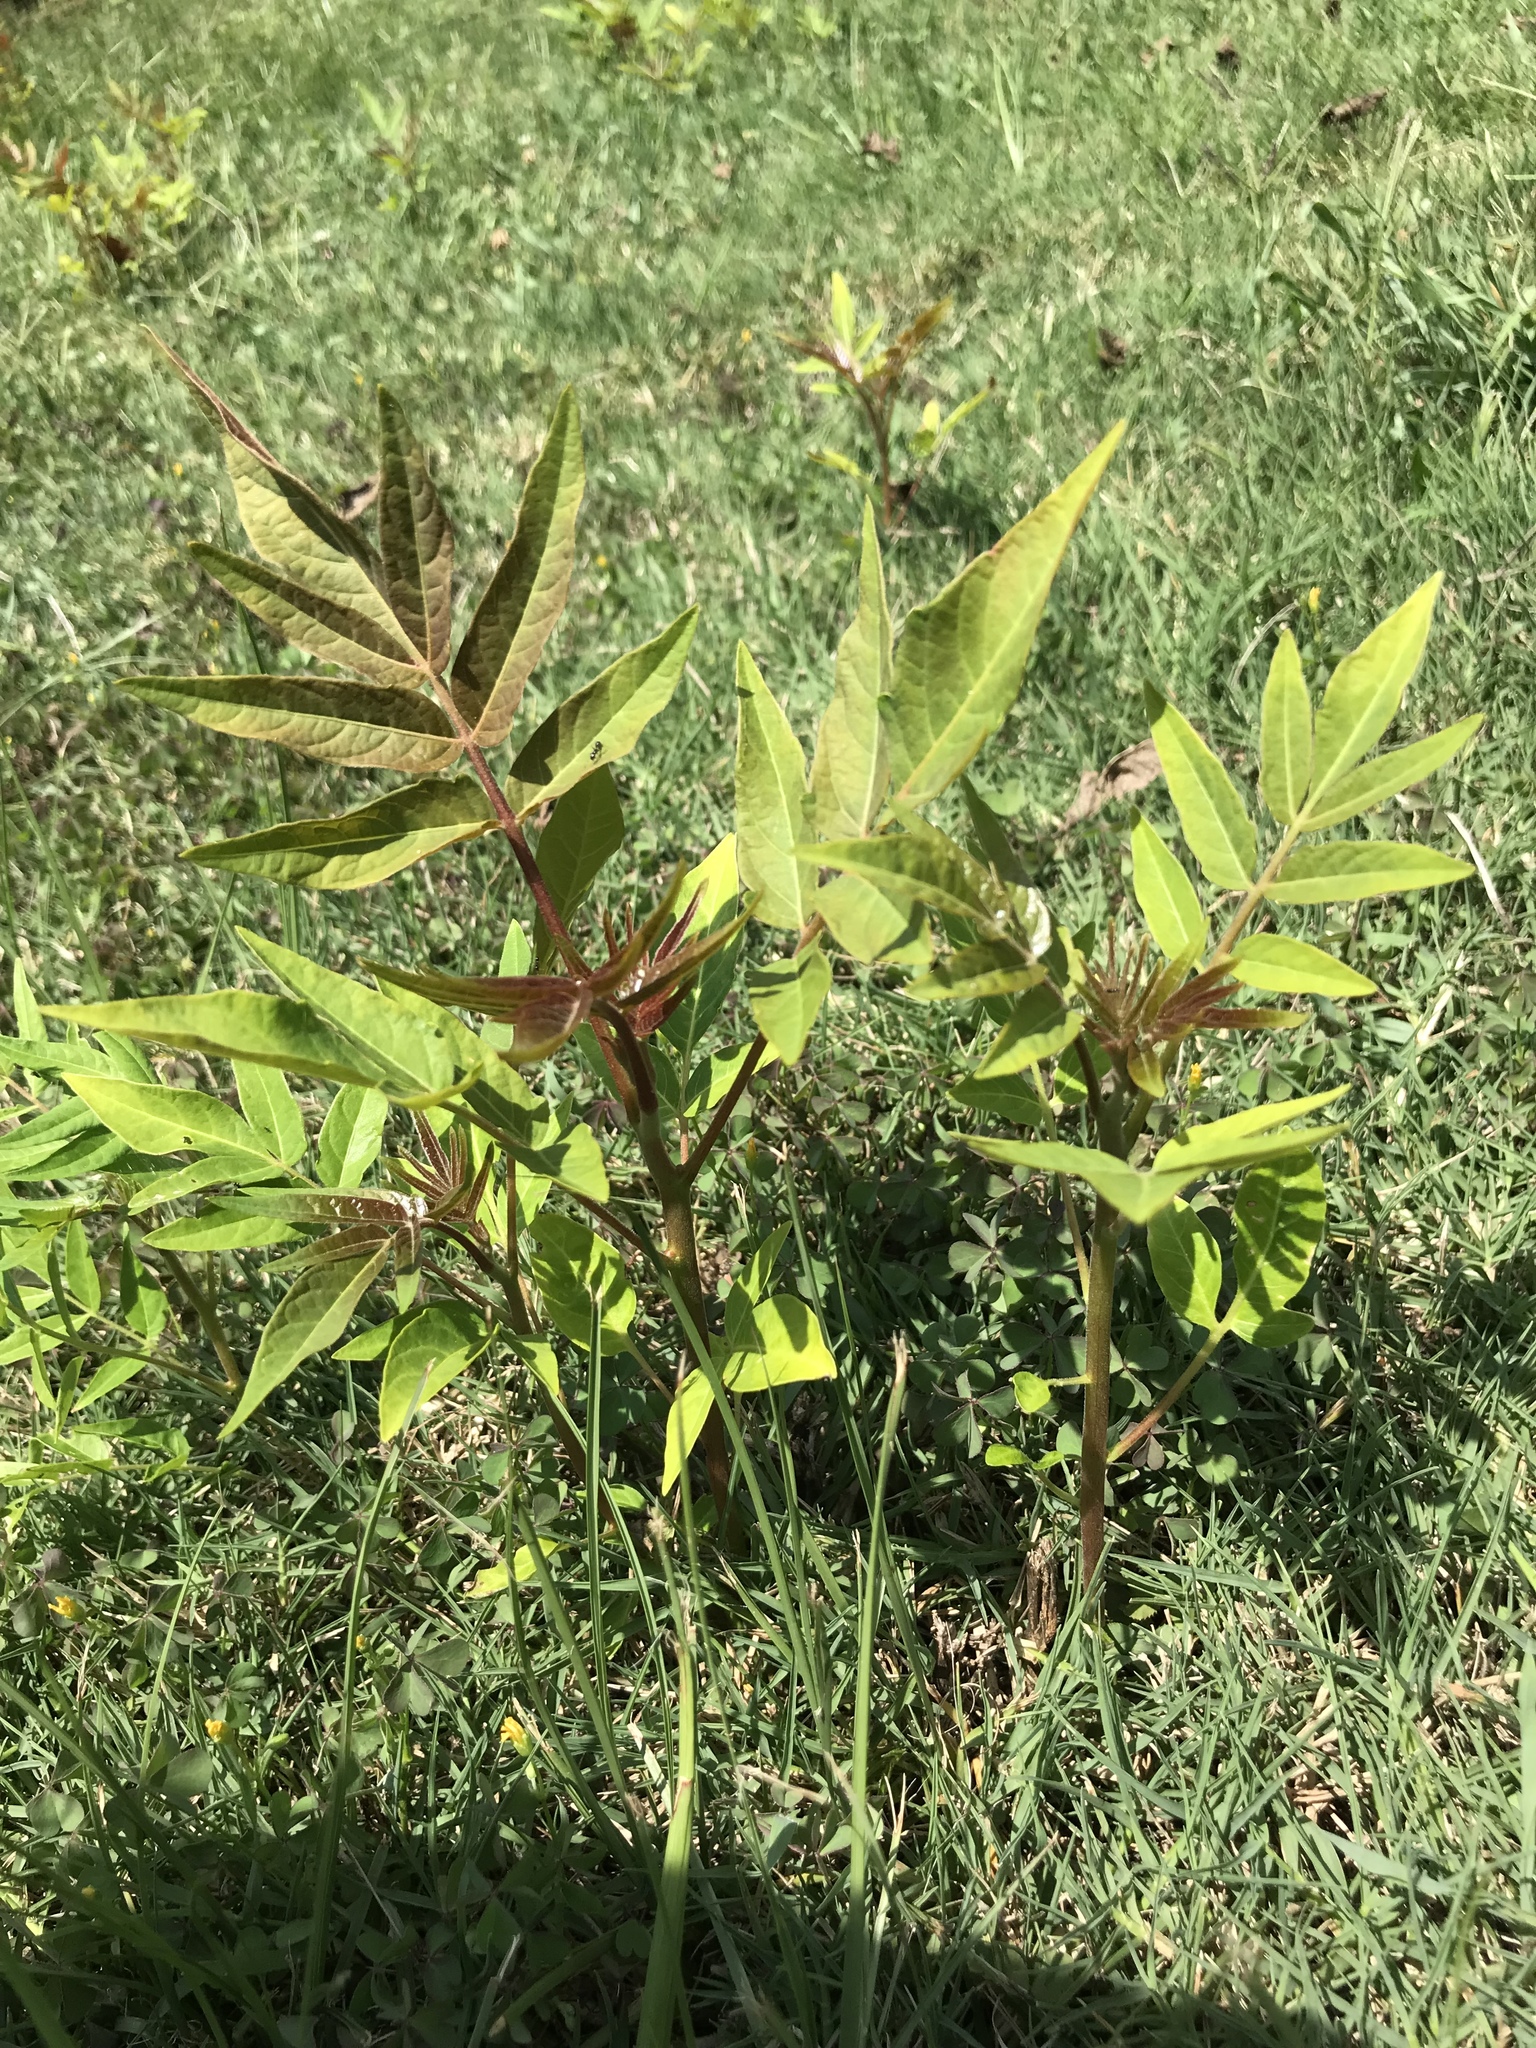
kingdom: Plantae
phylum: Tracheophyta
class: Magnoliopsida
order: Sapindales
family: Simaroubaceae
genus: Ailanthus
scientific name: Ailanthus altissima
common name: Tree-of-heaven
